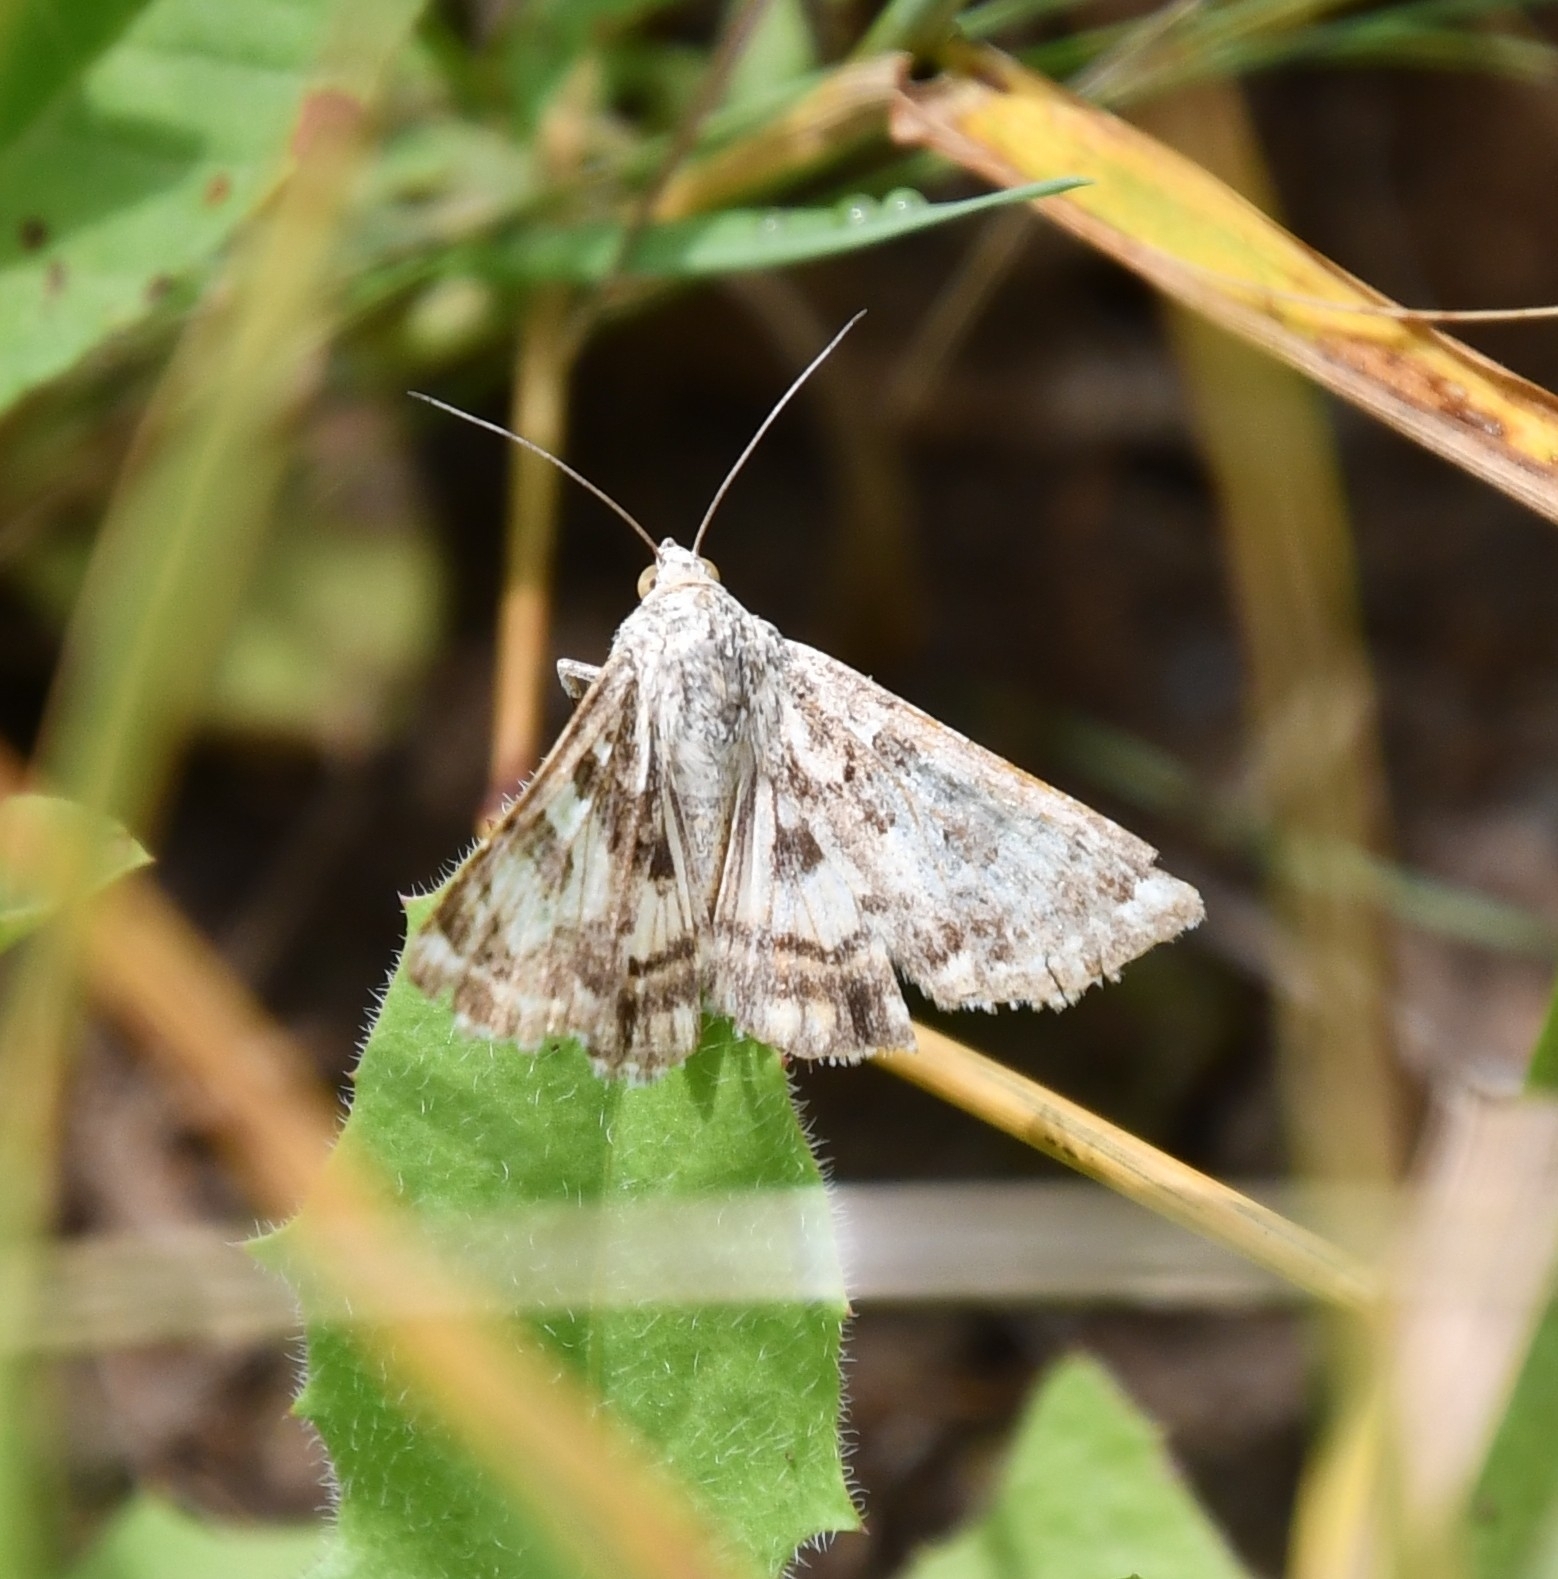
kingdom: Animalia
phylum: Arthropoda
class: Insecta
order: Lepidoptera
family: Noctuidae
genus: Protoschinia
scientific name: Protoschinia scutosa
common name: Spotted clover
